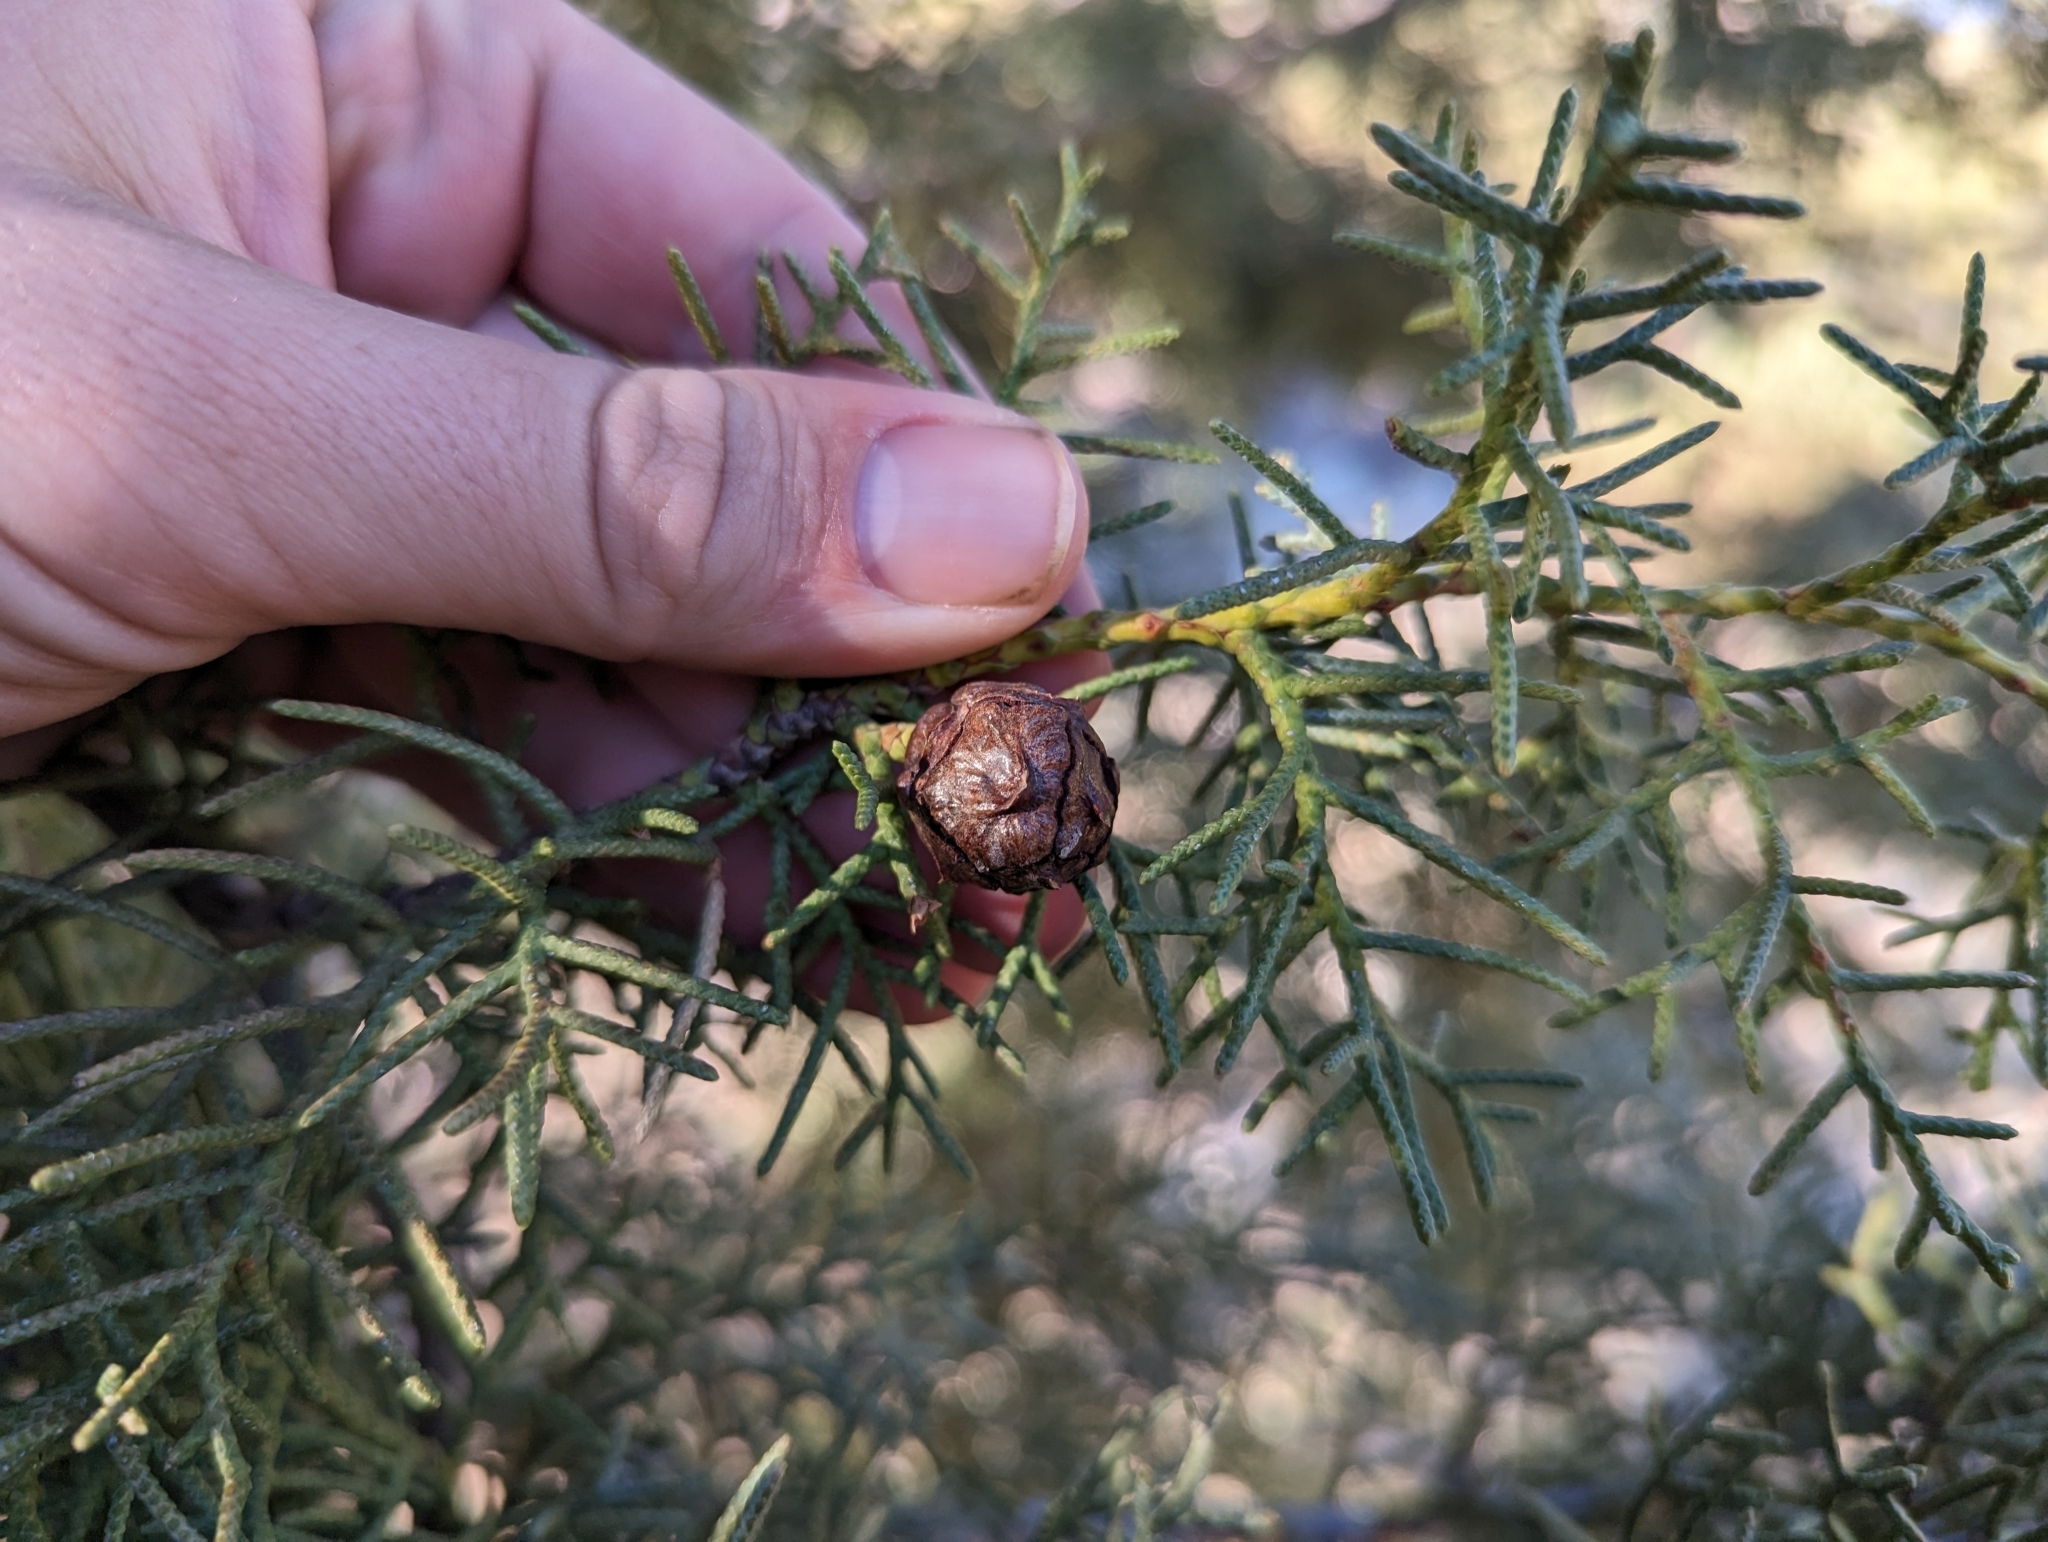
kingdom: Plantae
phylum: Tracheophyta
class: Pinopsida
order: Pinales
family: Cupressaceae
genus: Cupressus
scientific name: Cupressus arizonica
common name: Arizona cypress
